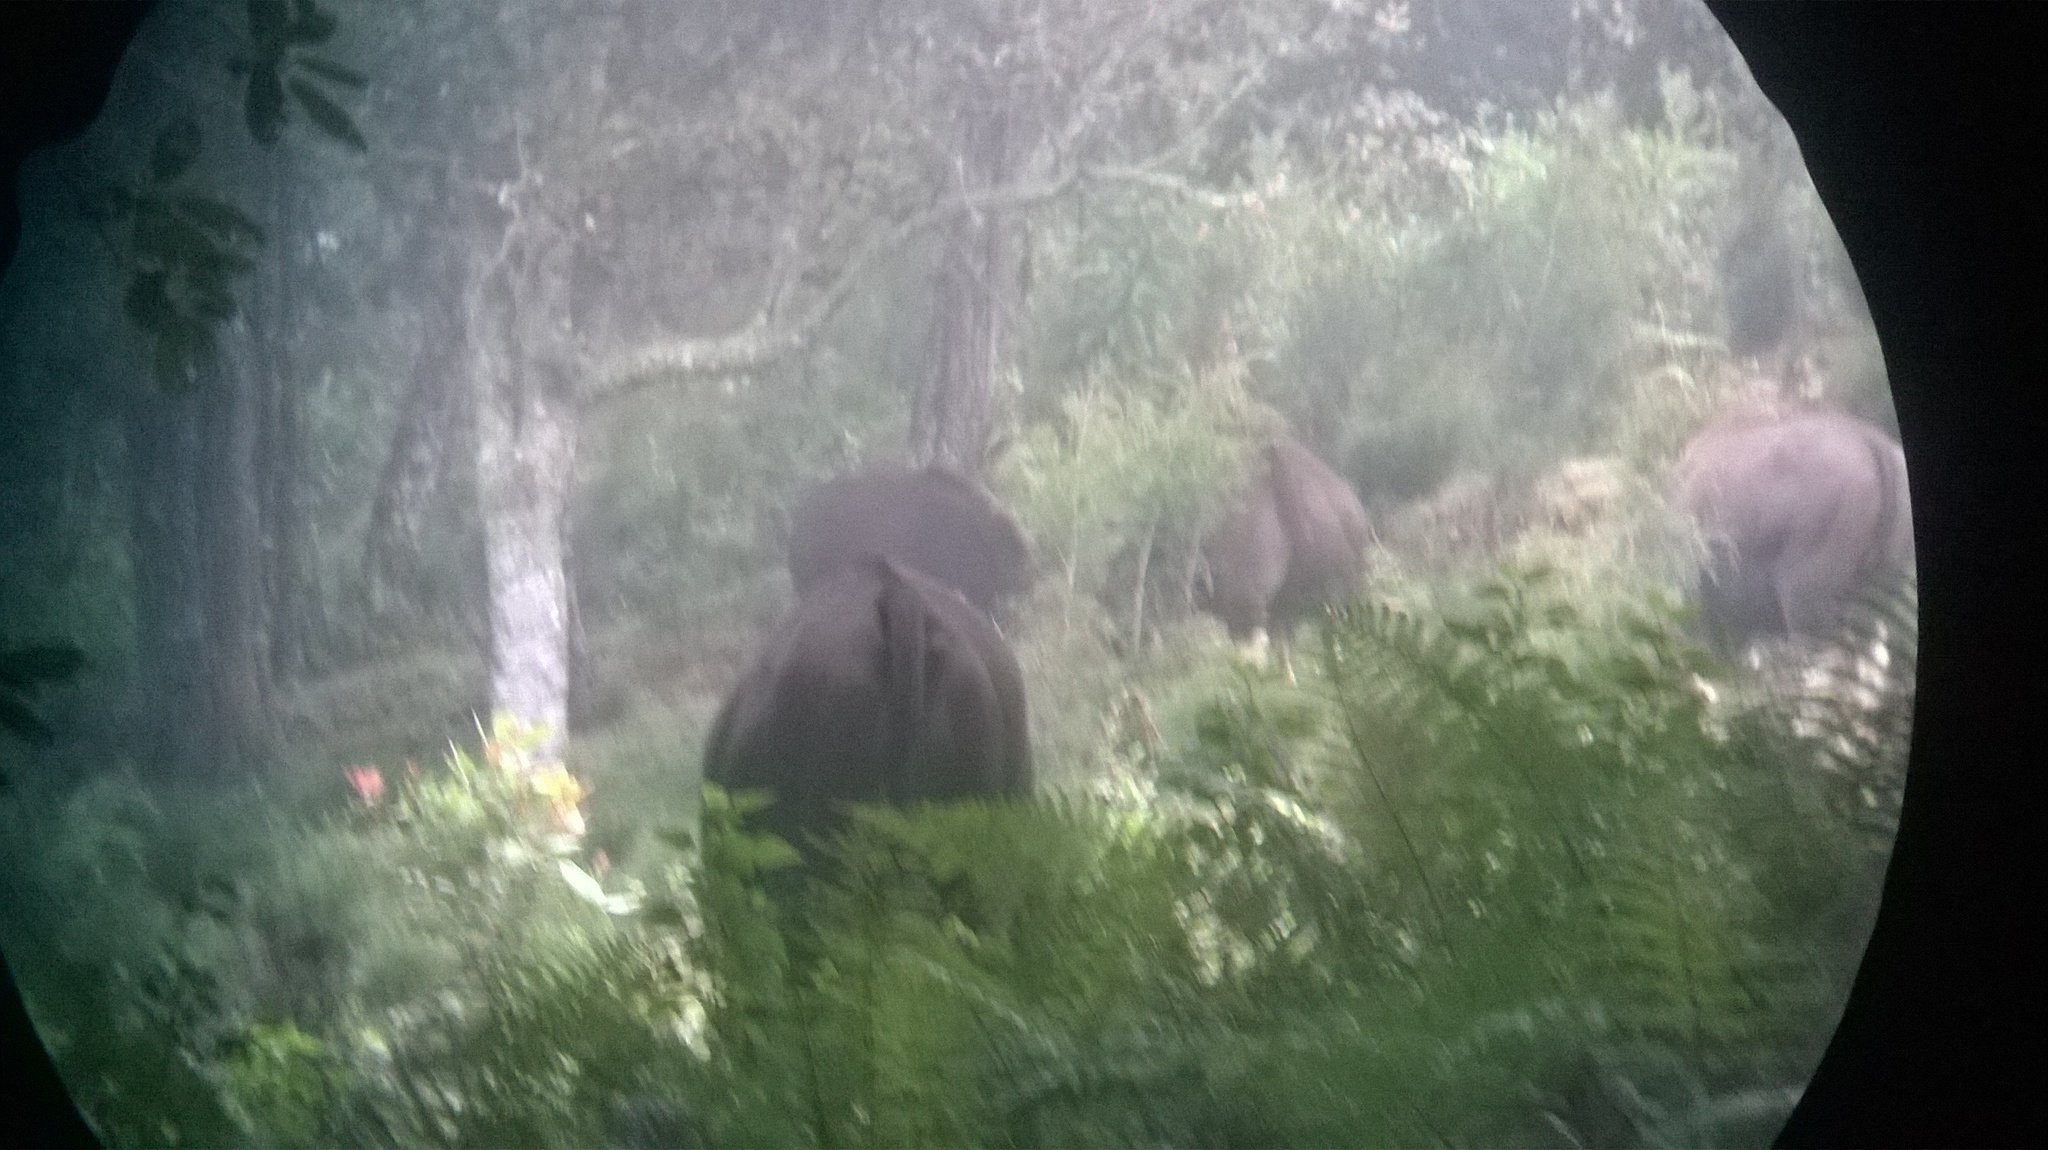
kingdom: Animalia
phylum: Chordata
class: Mammalia
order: Artiodactyla
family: Bovidae
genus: Bos
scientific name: Bos frontalis
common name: Gaur
